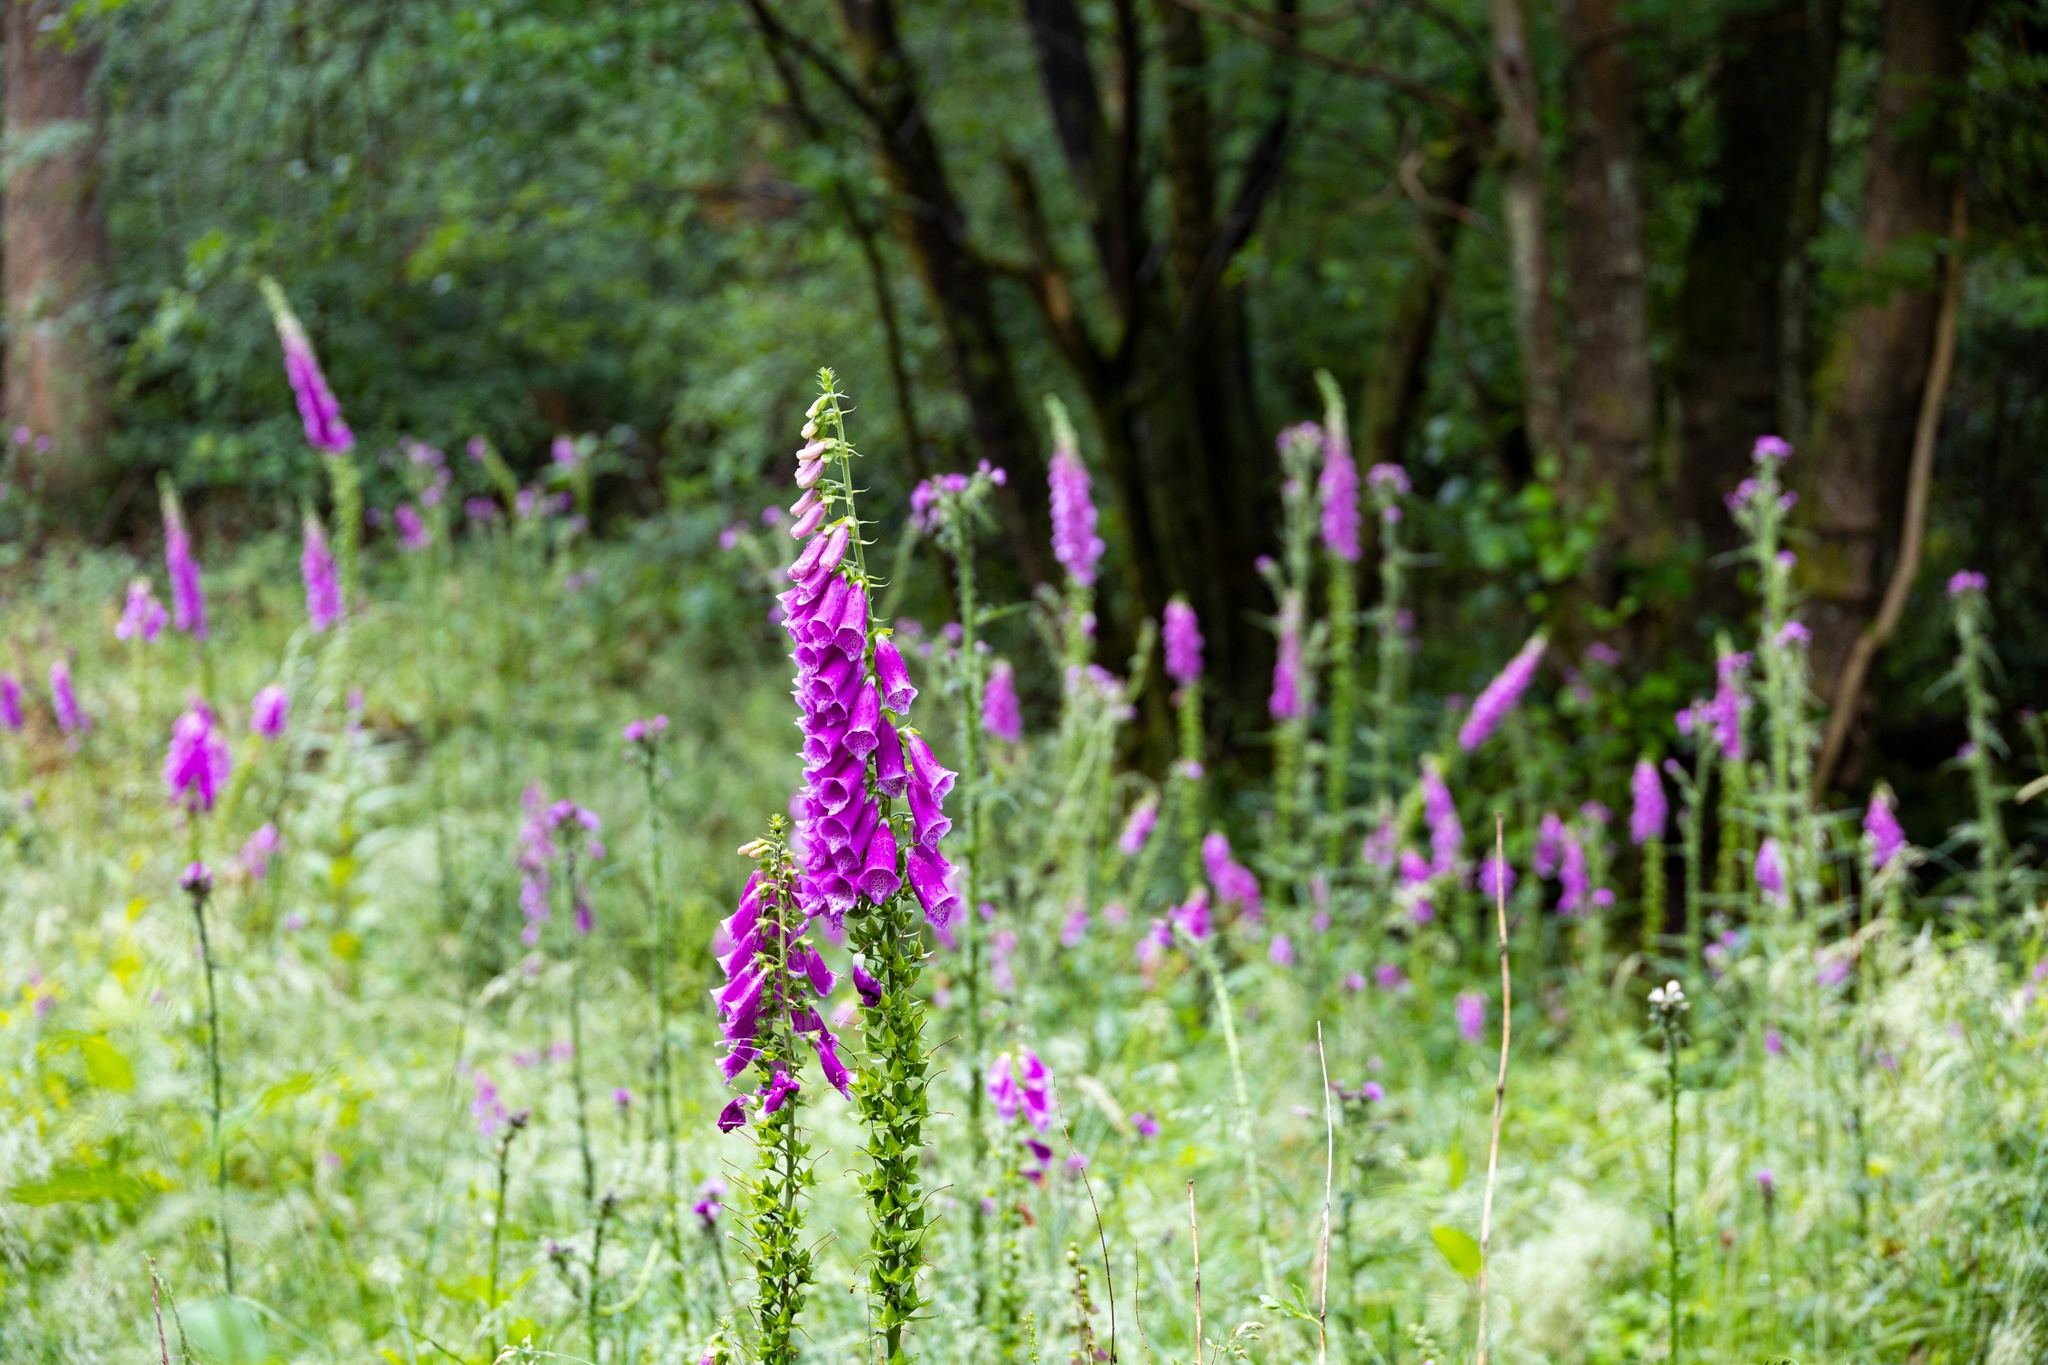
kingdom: Plantae
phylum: Tracheophyta
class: Magnoliopsida
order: Lamiales
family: Plantaginaceae
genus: Digitalis
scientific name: Digitalis purpurea
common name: Foxglove
